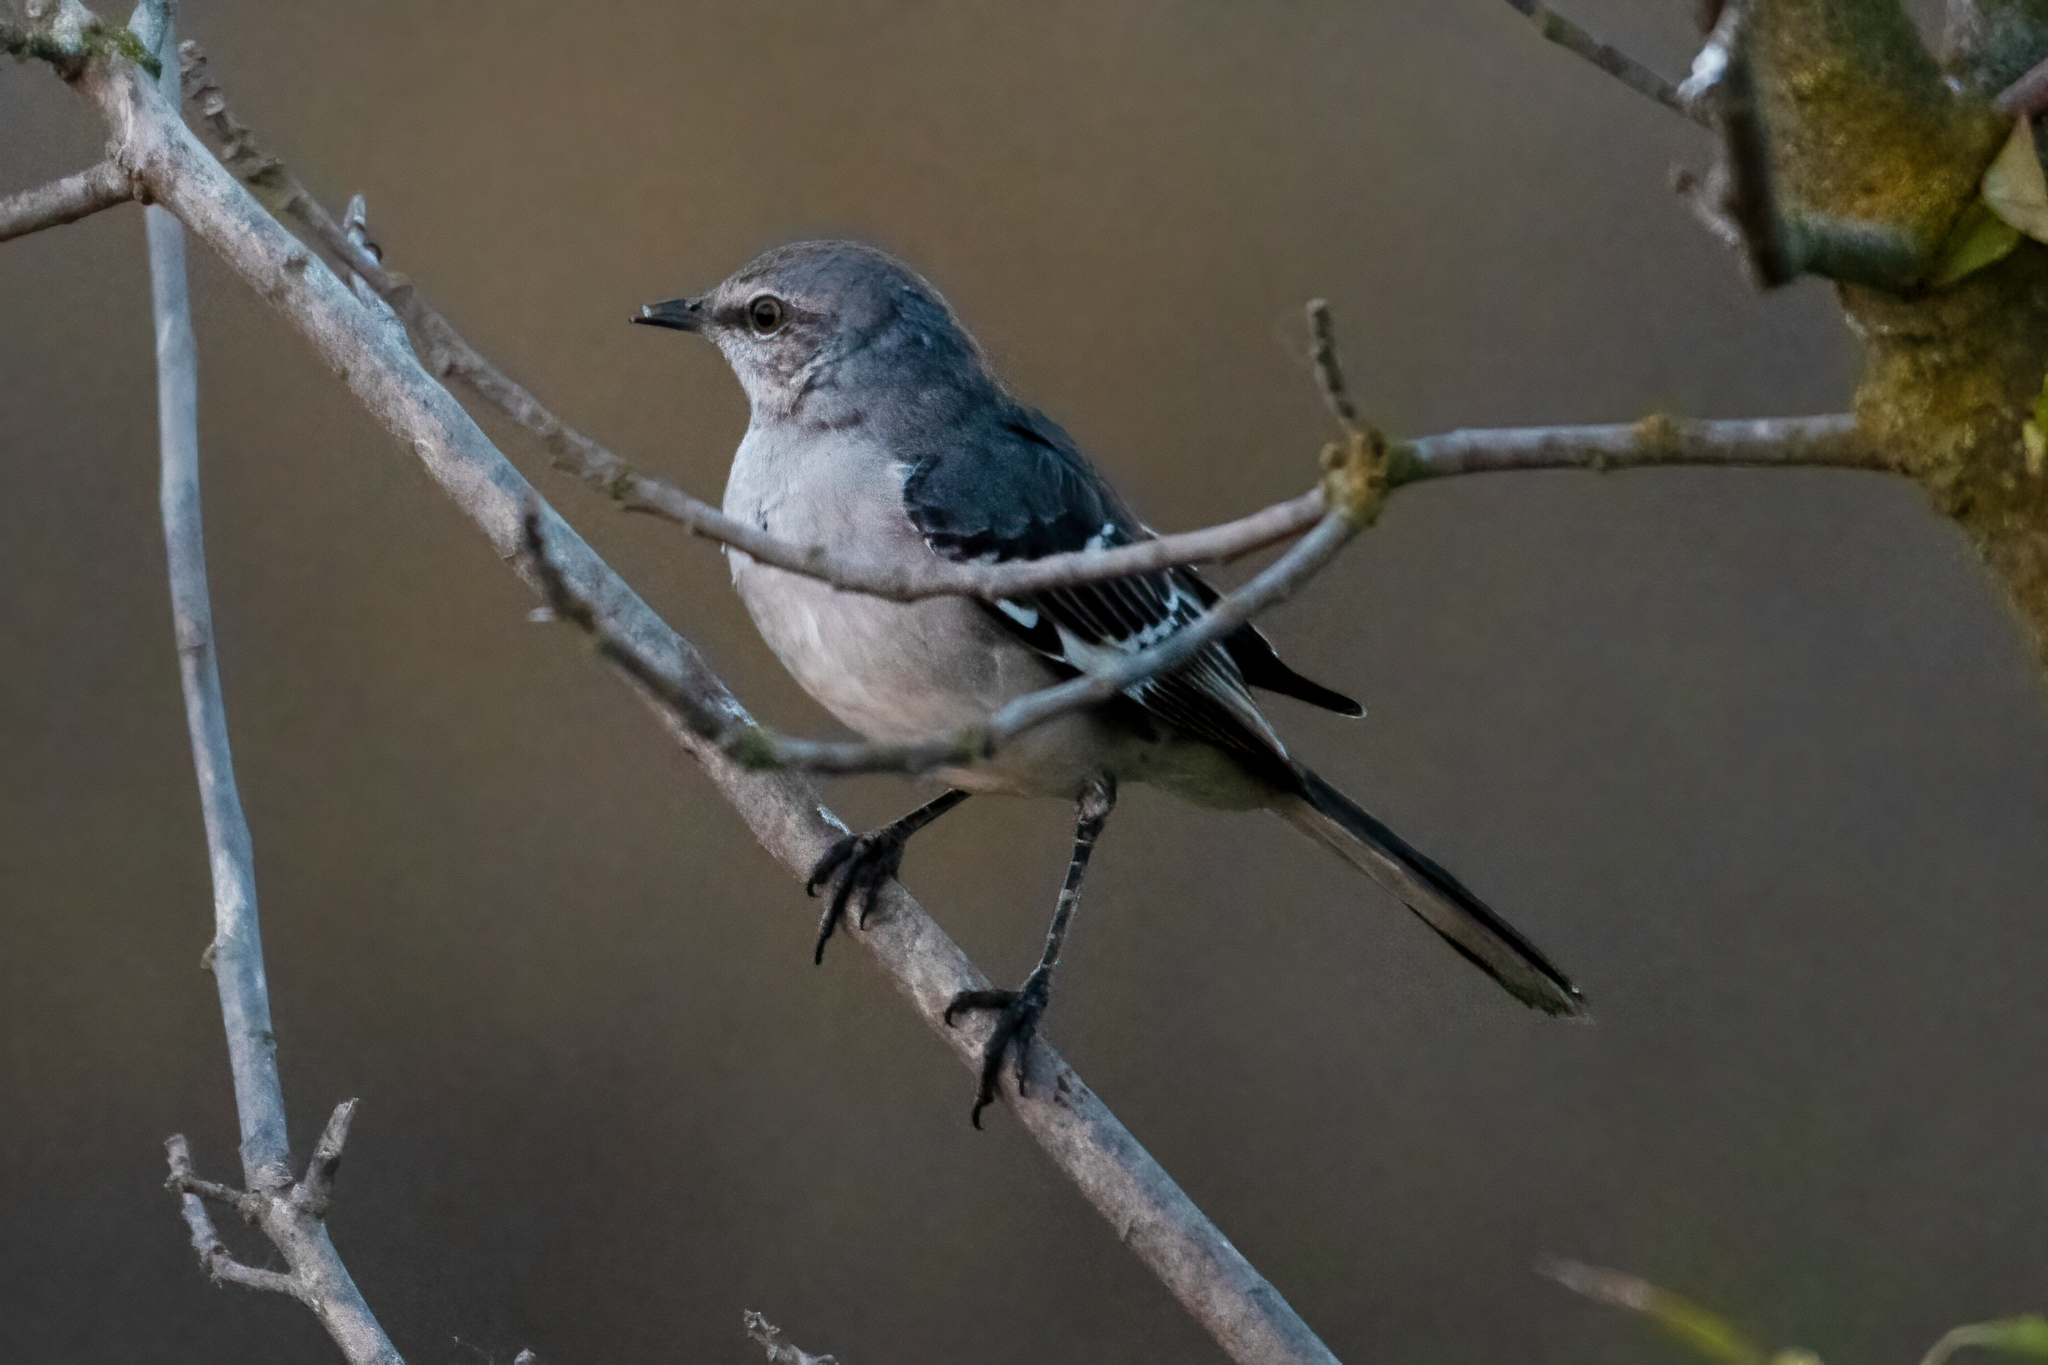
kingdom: Animalia
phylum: Chordata
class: Aves
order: Passeriformes
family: Mimidae
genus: Mimus
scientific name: Mimus polyglottos
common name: Northern mockingbird
